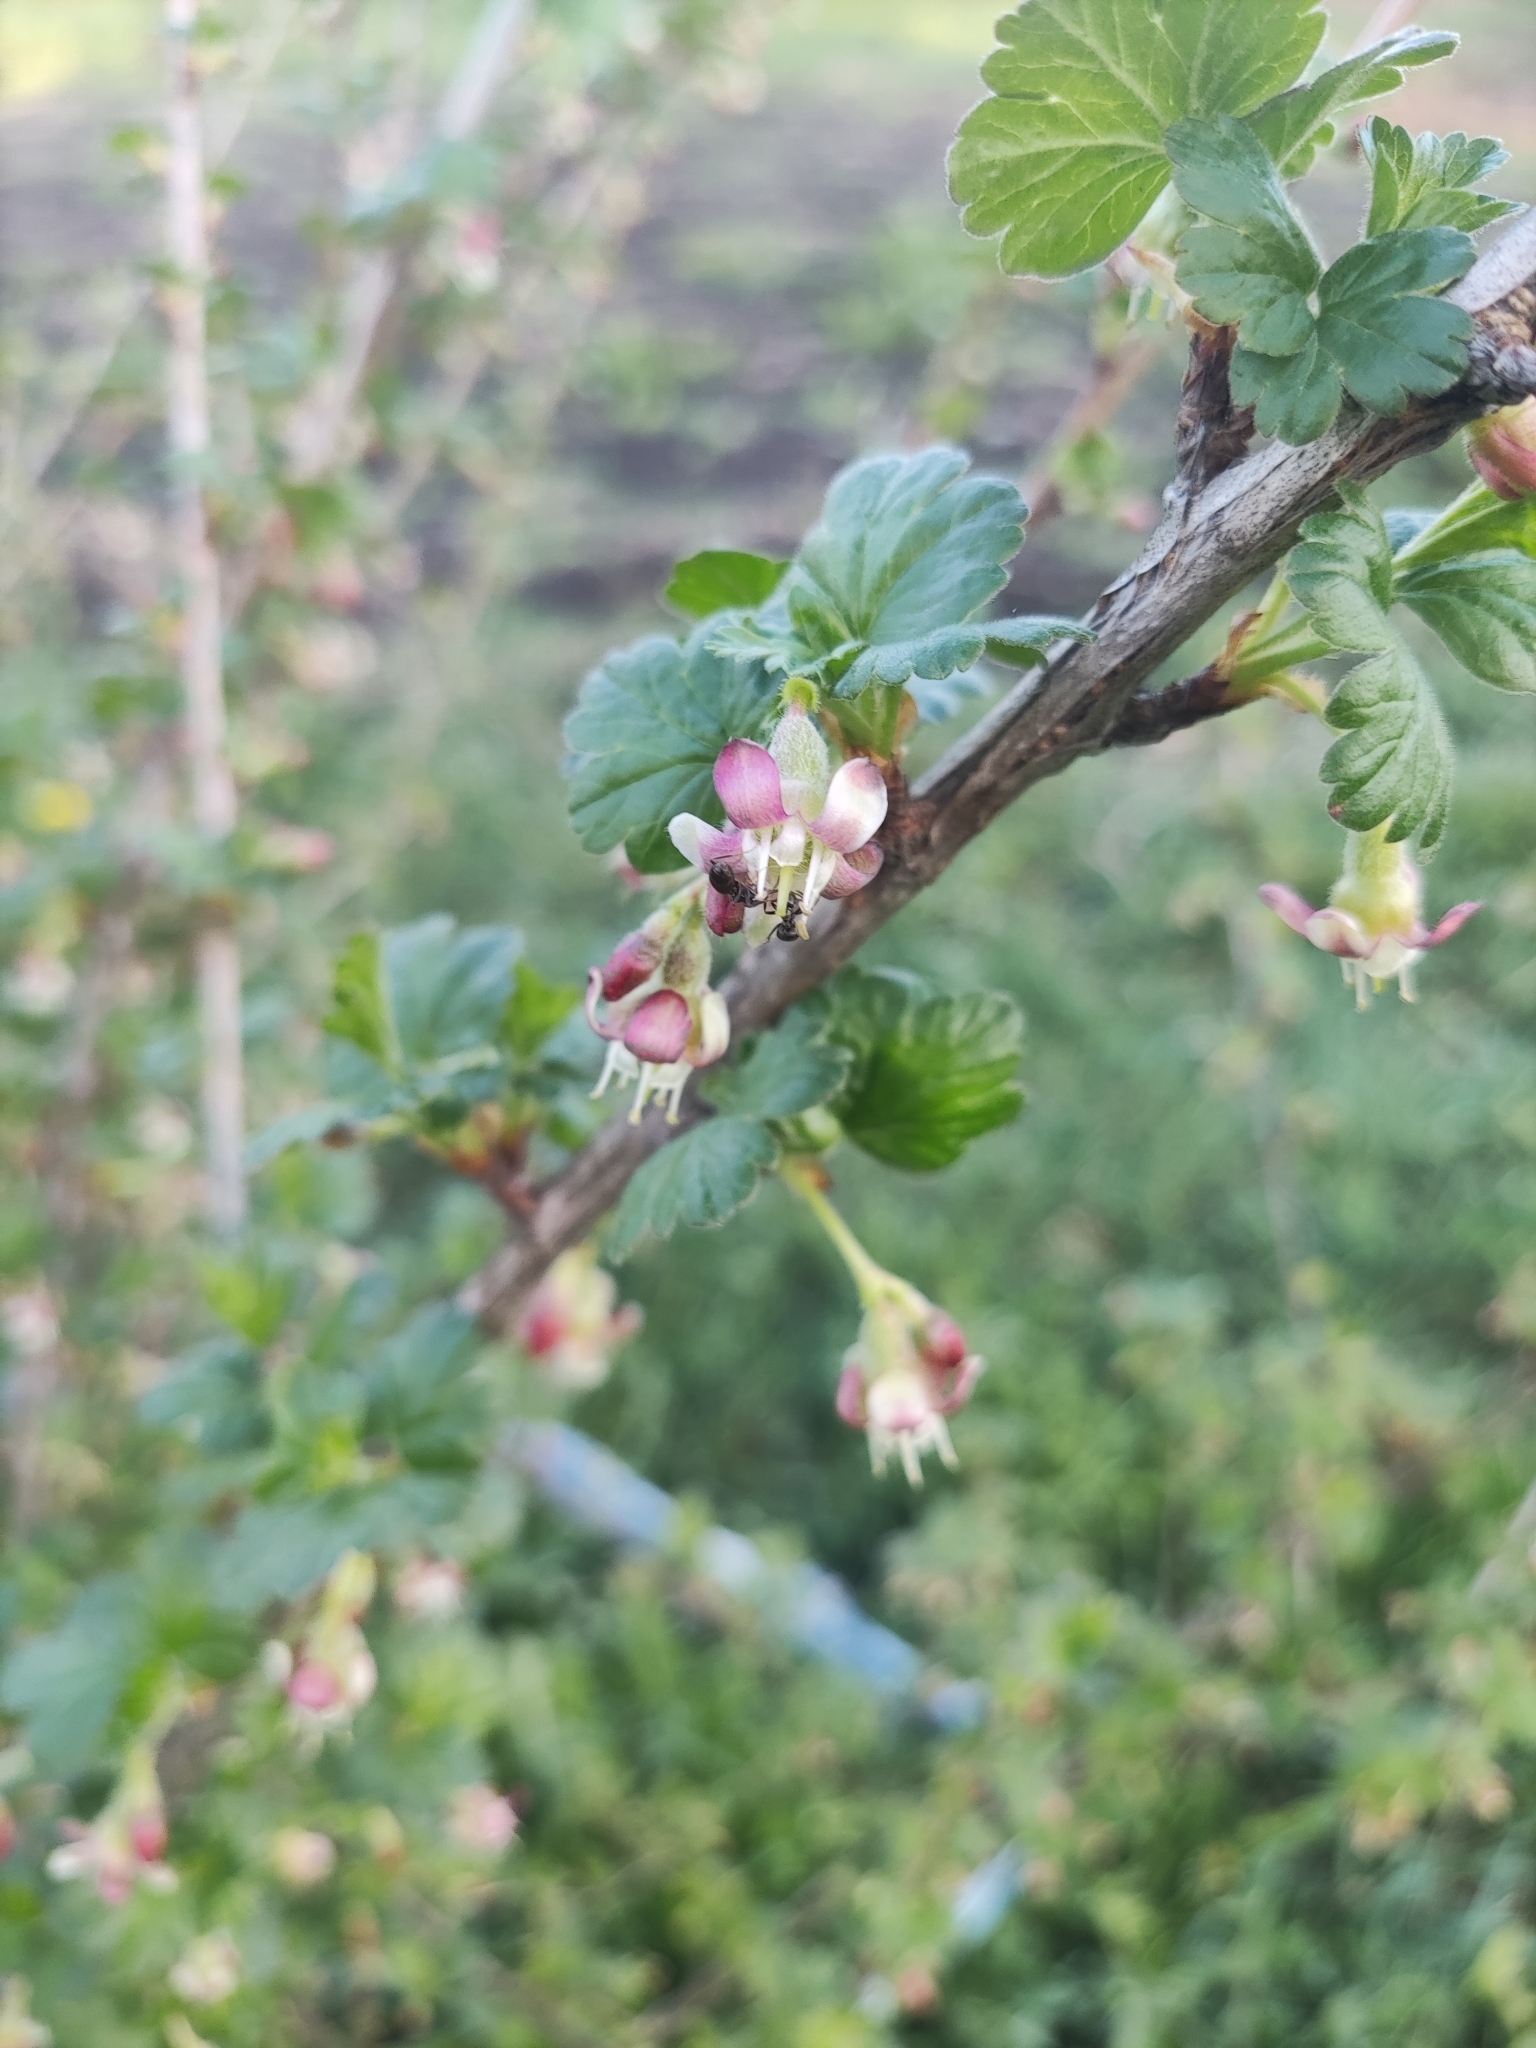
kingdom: Plantae
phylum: Tracheophyta
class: Magnoliopsida
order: Saxifragales
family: Grossulariaceae
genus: Ribes
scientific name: Ribes uva-crispa
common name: Gooseberry
